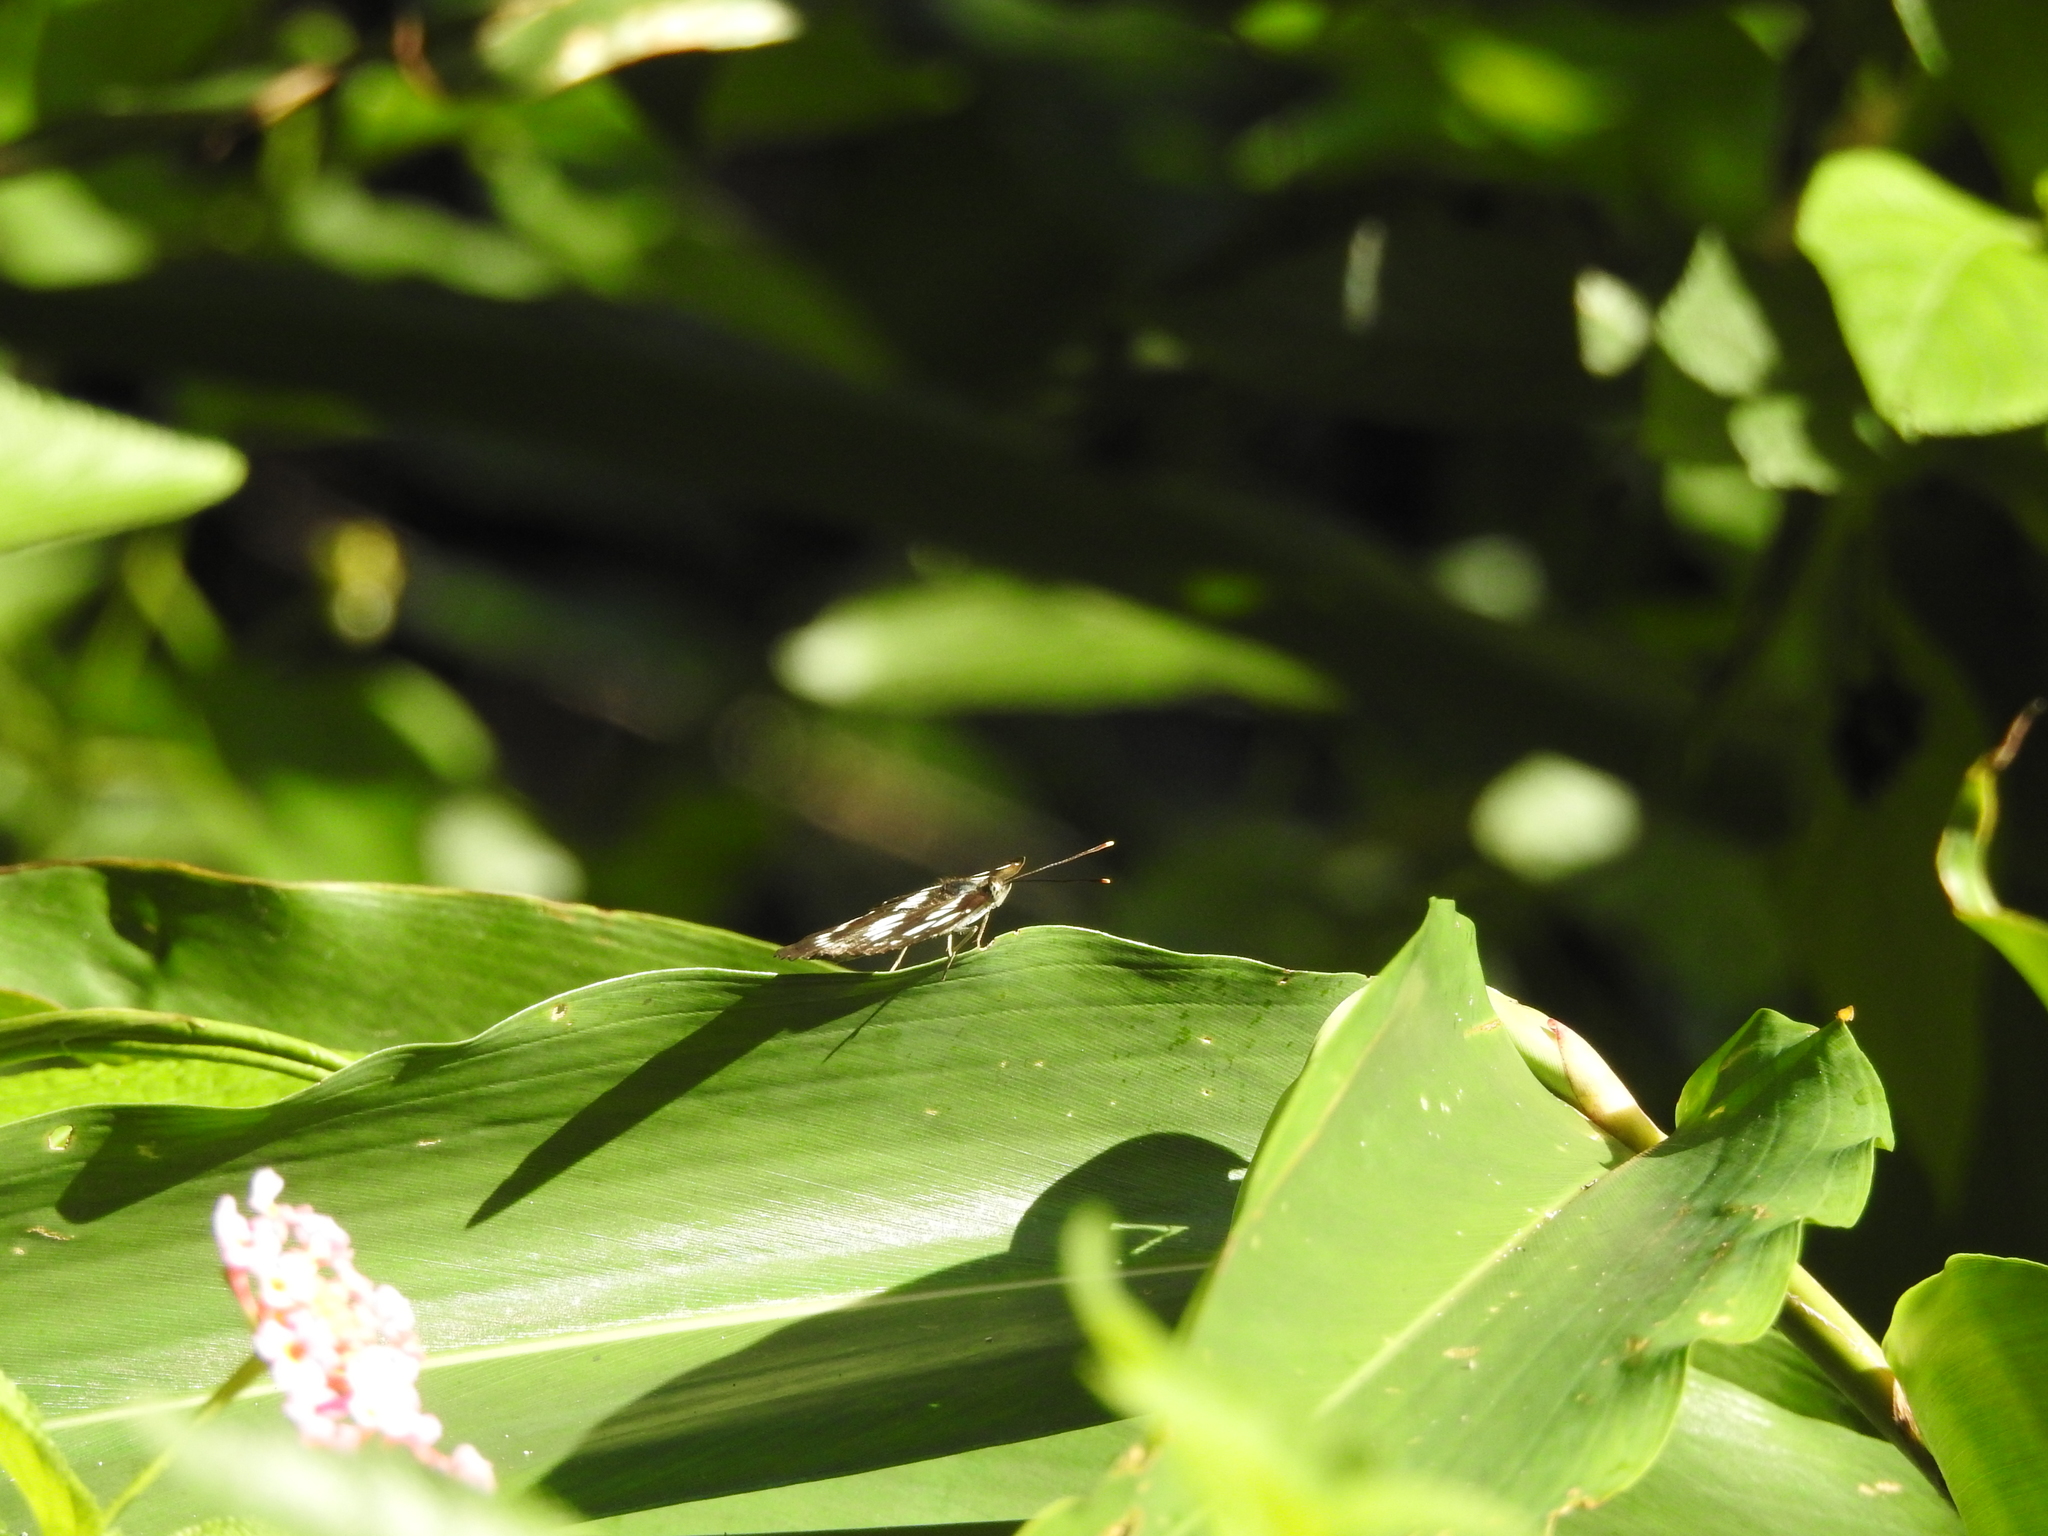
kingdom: Animalia
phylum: Arthropoda
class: Insecta
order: Lepidoptera
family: Nymphalidae
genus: Neptis
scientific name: Neptis hylas
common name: Common sailer
